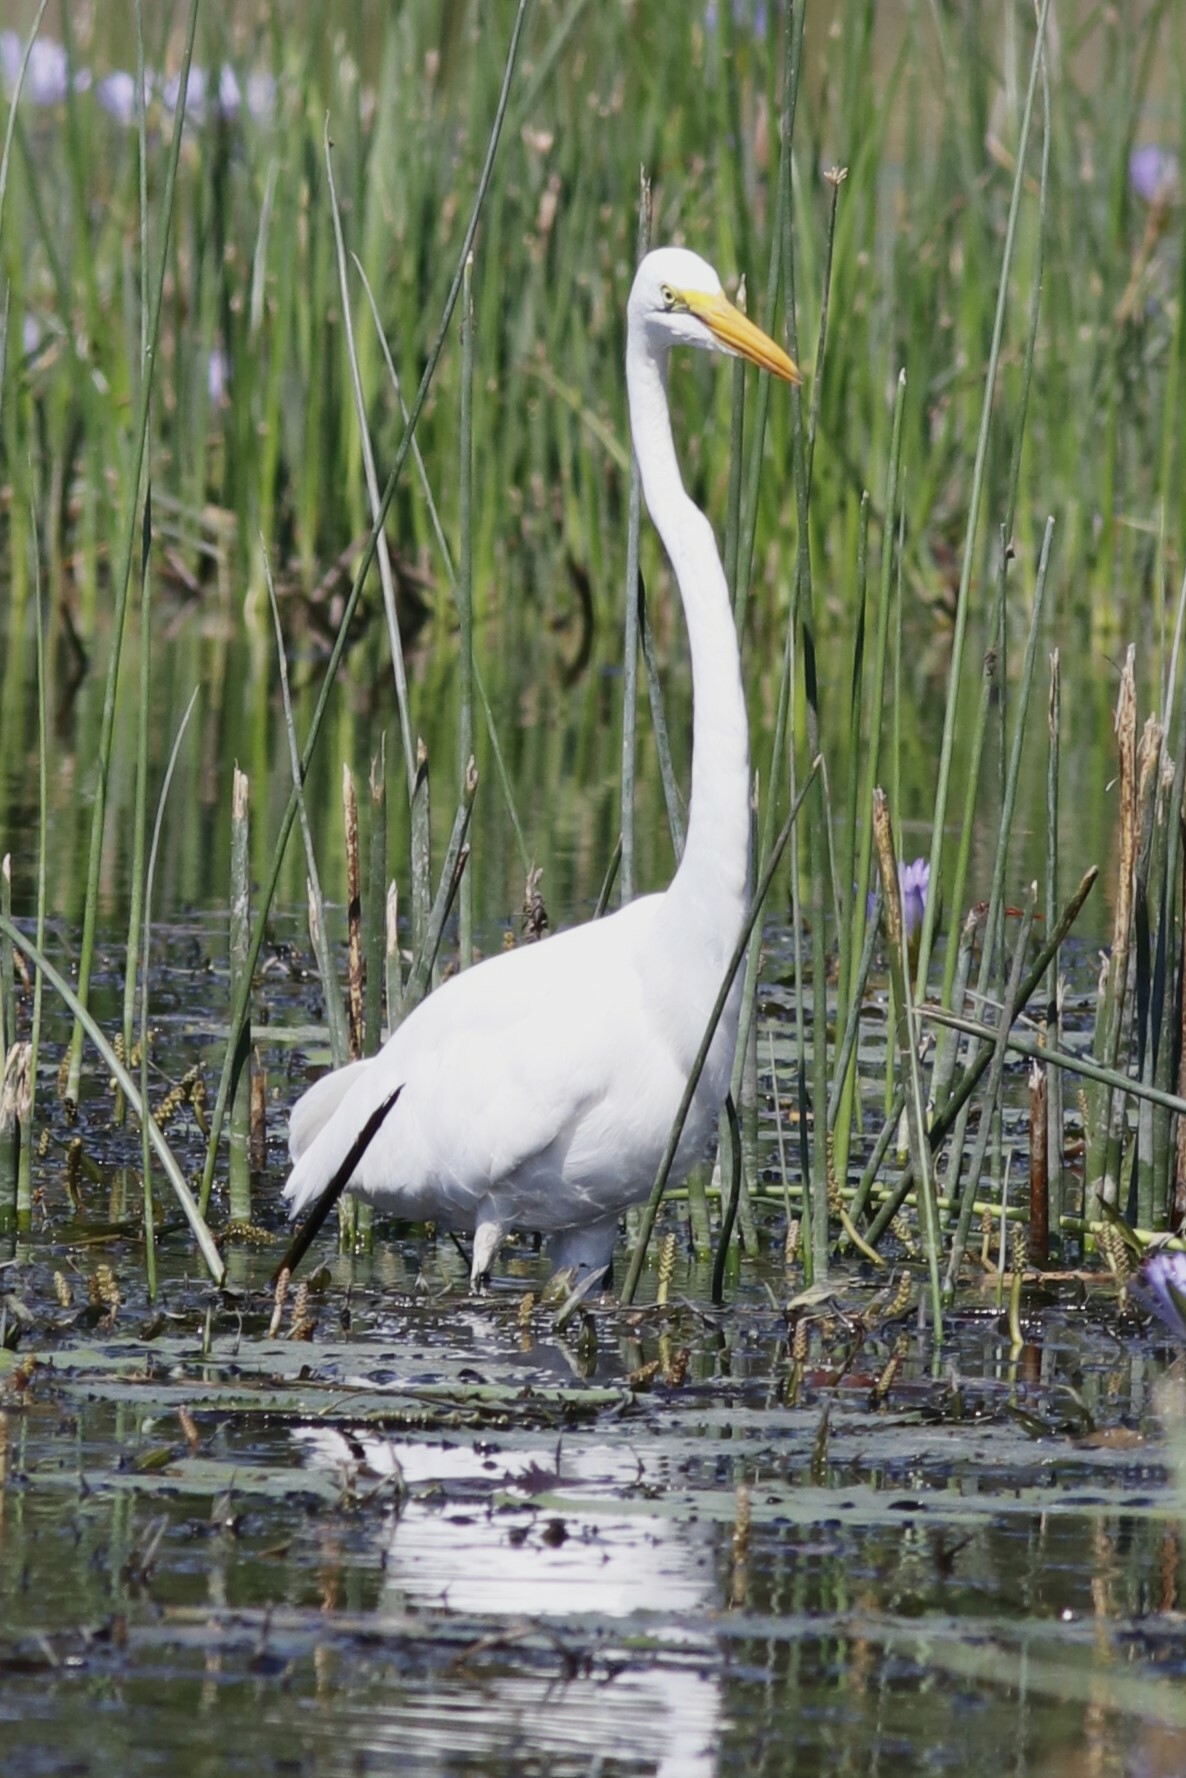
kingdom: Animalia
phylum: Chordata
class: Aves
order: Pelecaniformes
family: Ardeidae
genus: Ardea
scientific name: Ardea alba
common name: Great egret
